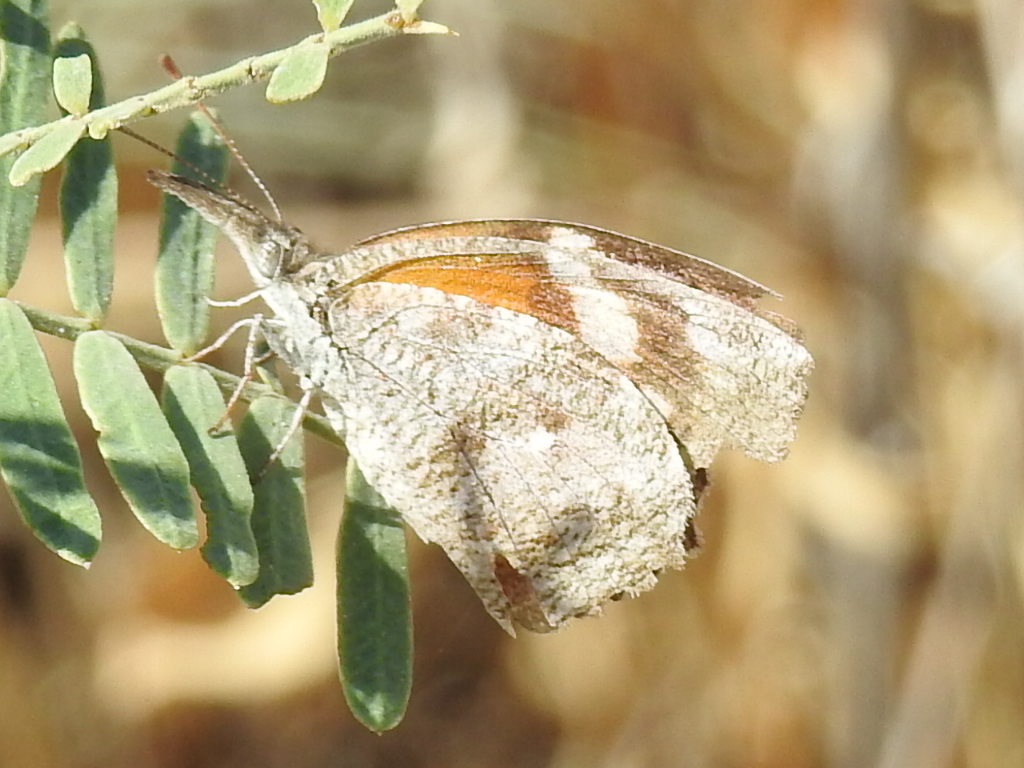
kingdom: Animalia
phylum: Arthropoda
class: Insecta
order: Lepidoptera
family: Nymphalidae
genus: Libytheana
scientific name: Libytheana carinenta
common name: American snout
